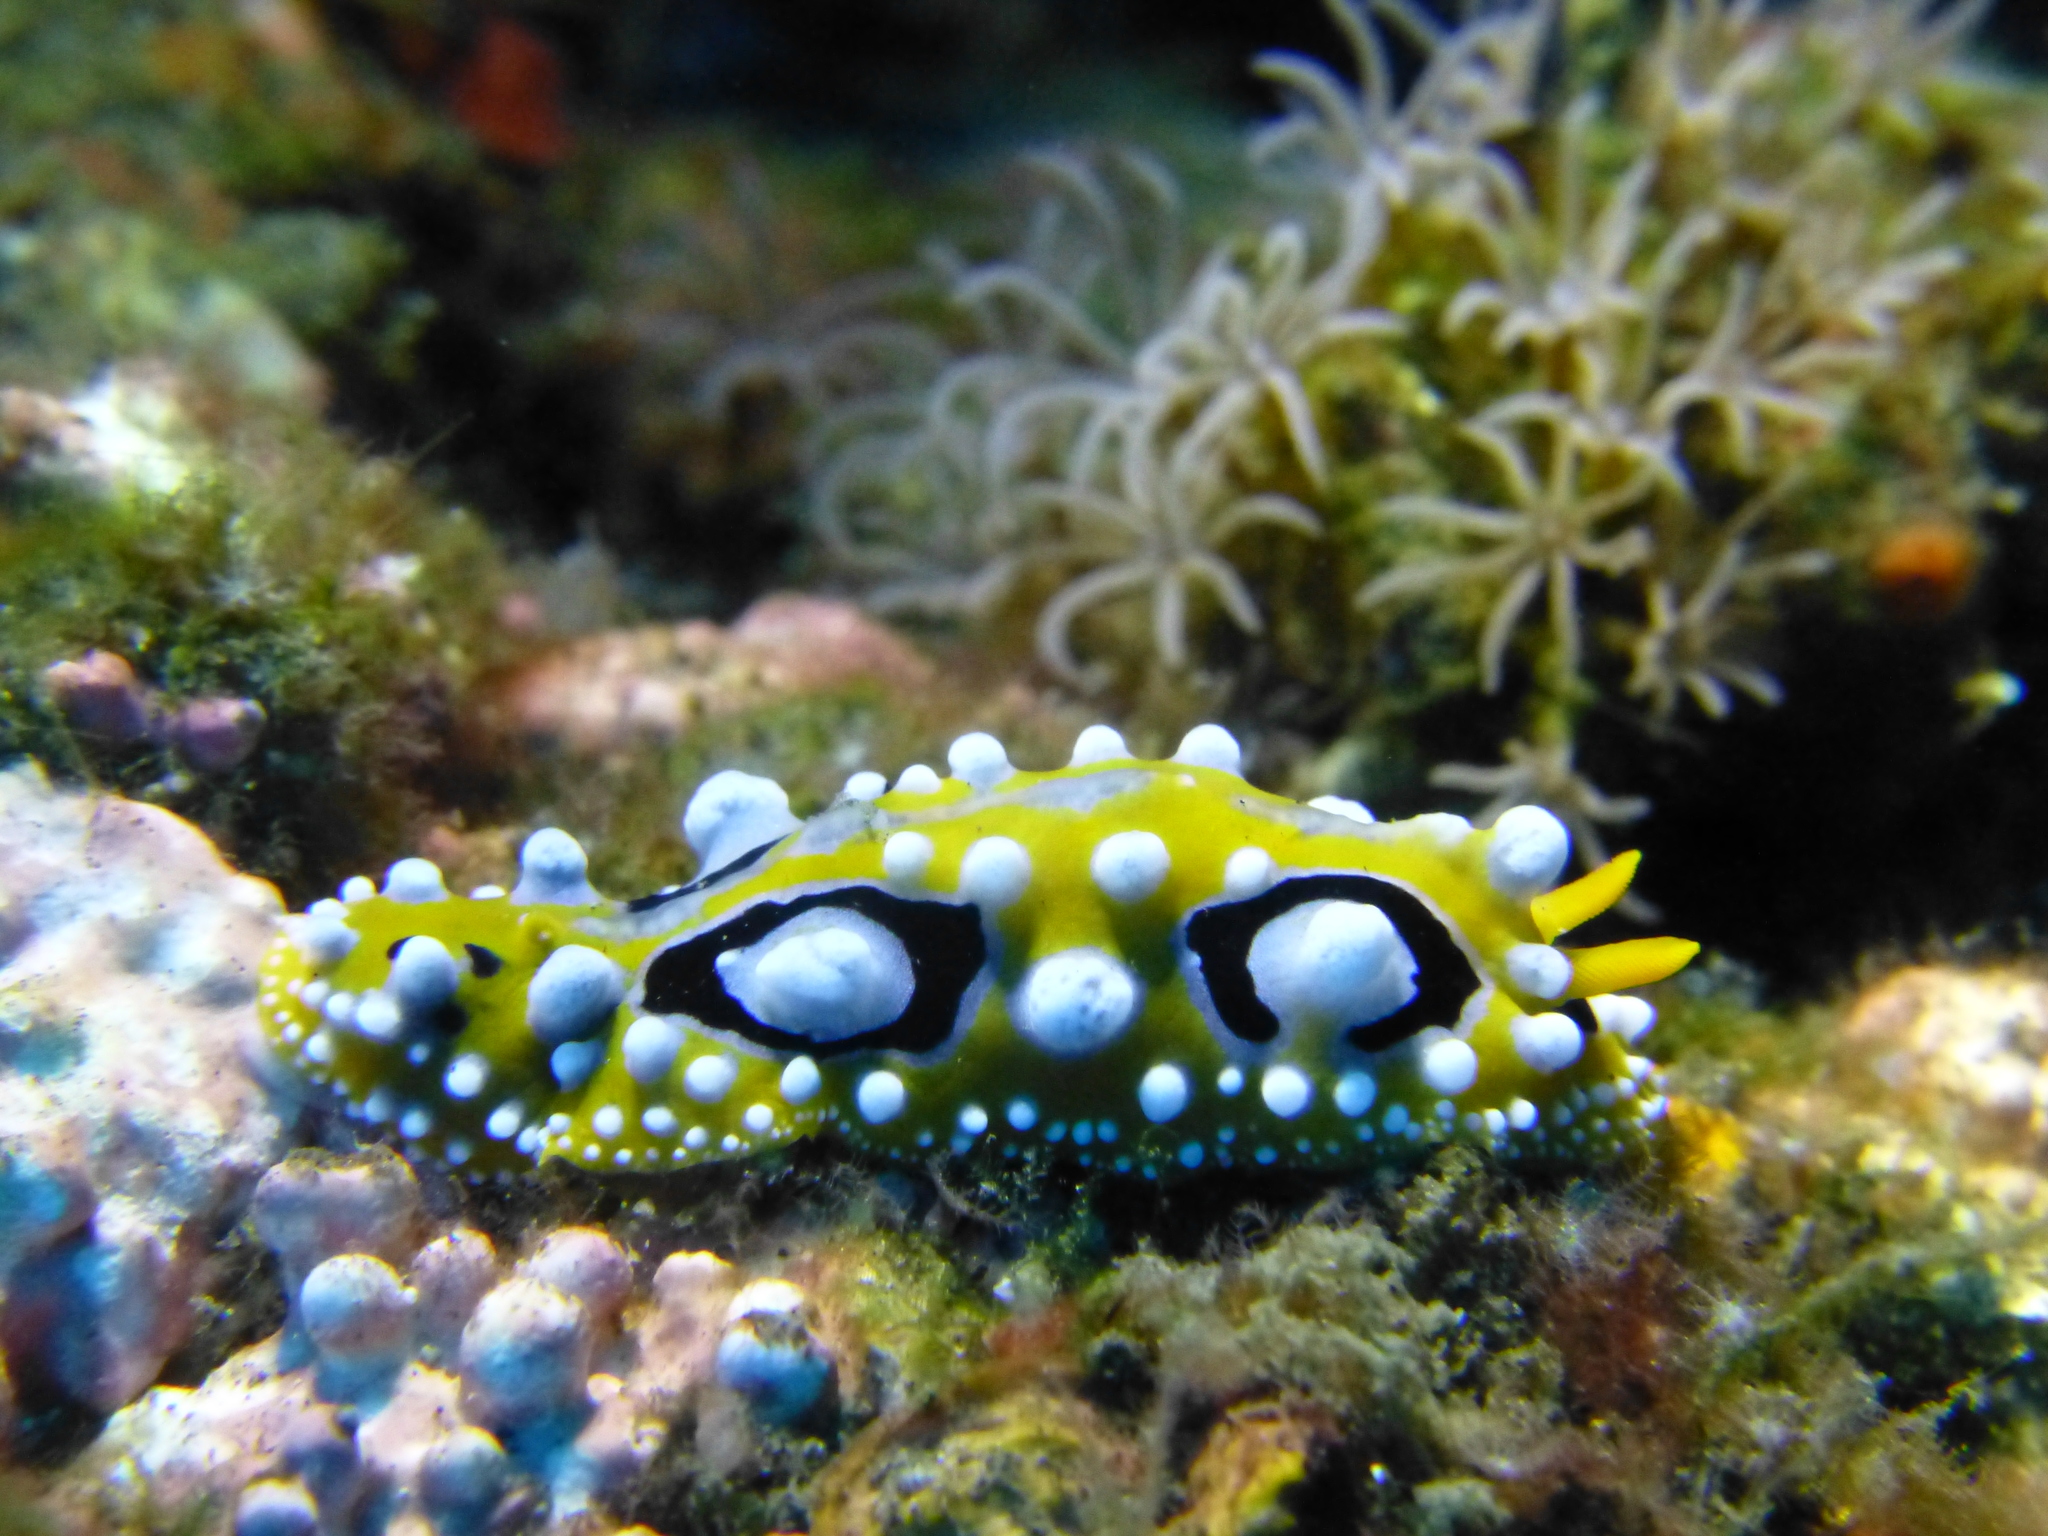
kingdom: Animalia
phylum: Mollusca
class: Gastropoda
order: Nudibranchia
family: Phyllidiidae
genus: Phyllidia
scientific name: Phyllidia ocellata
